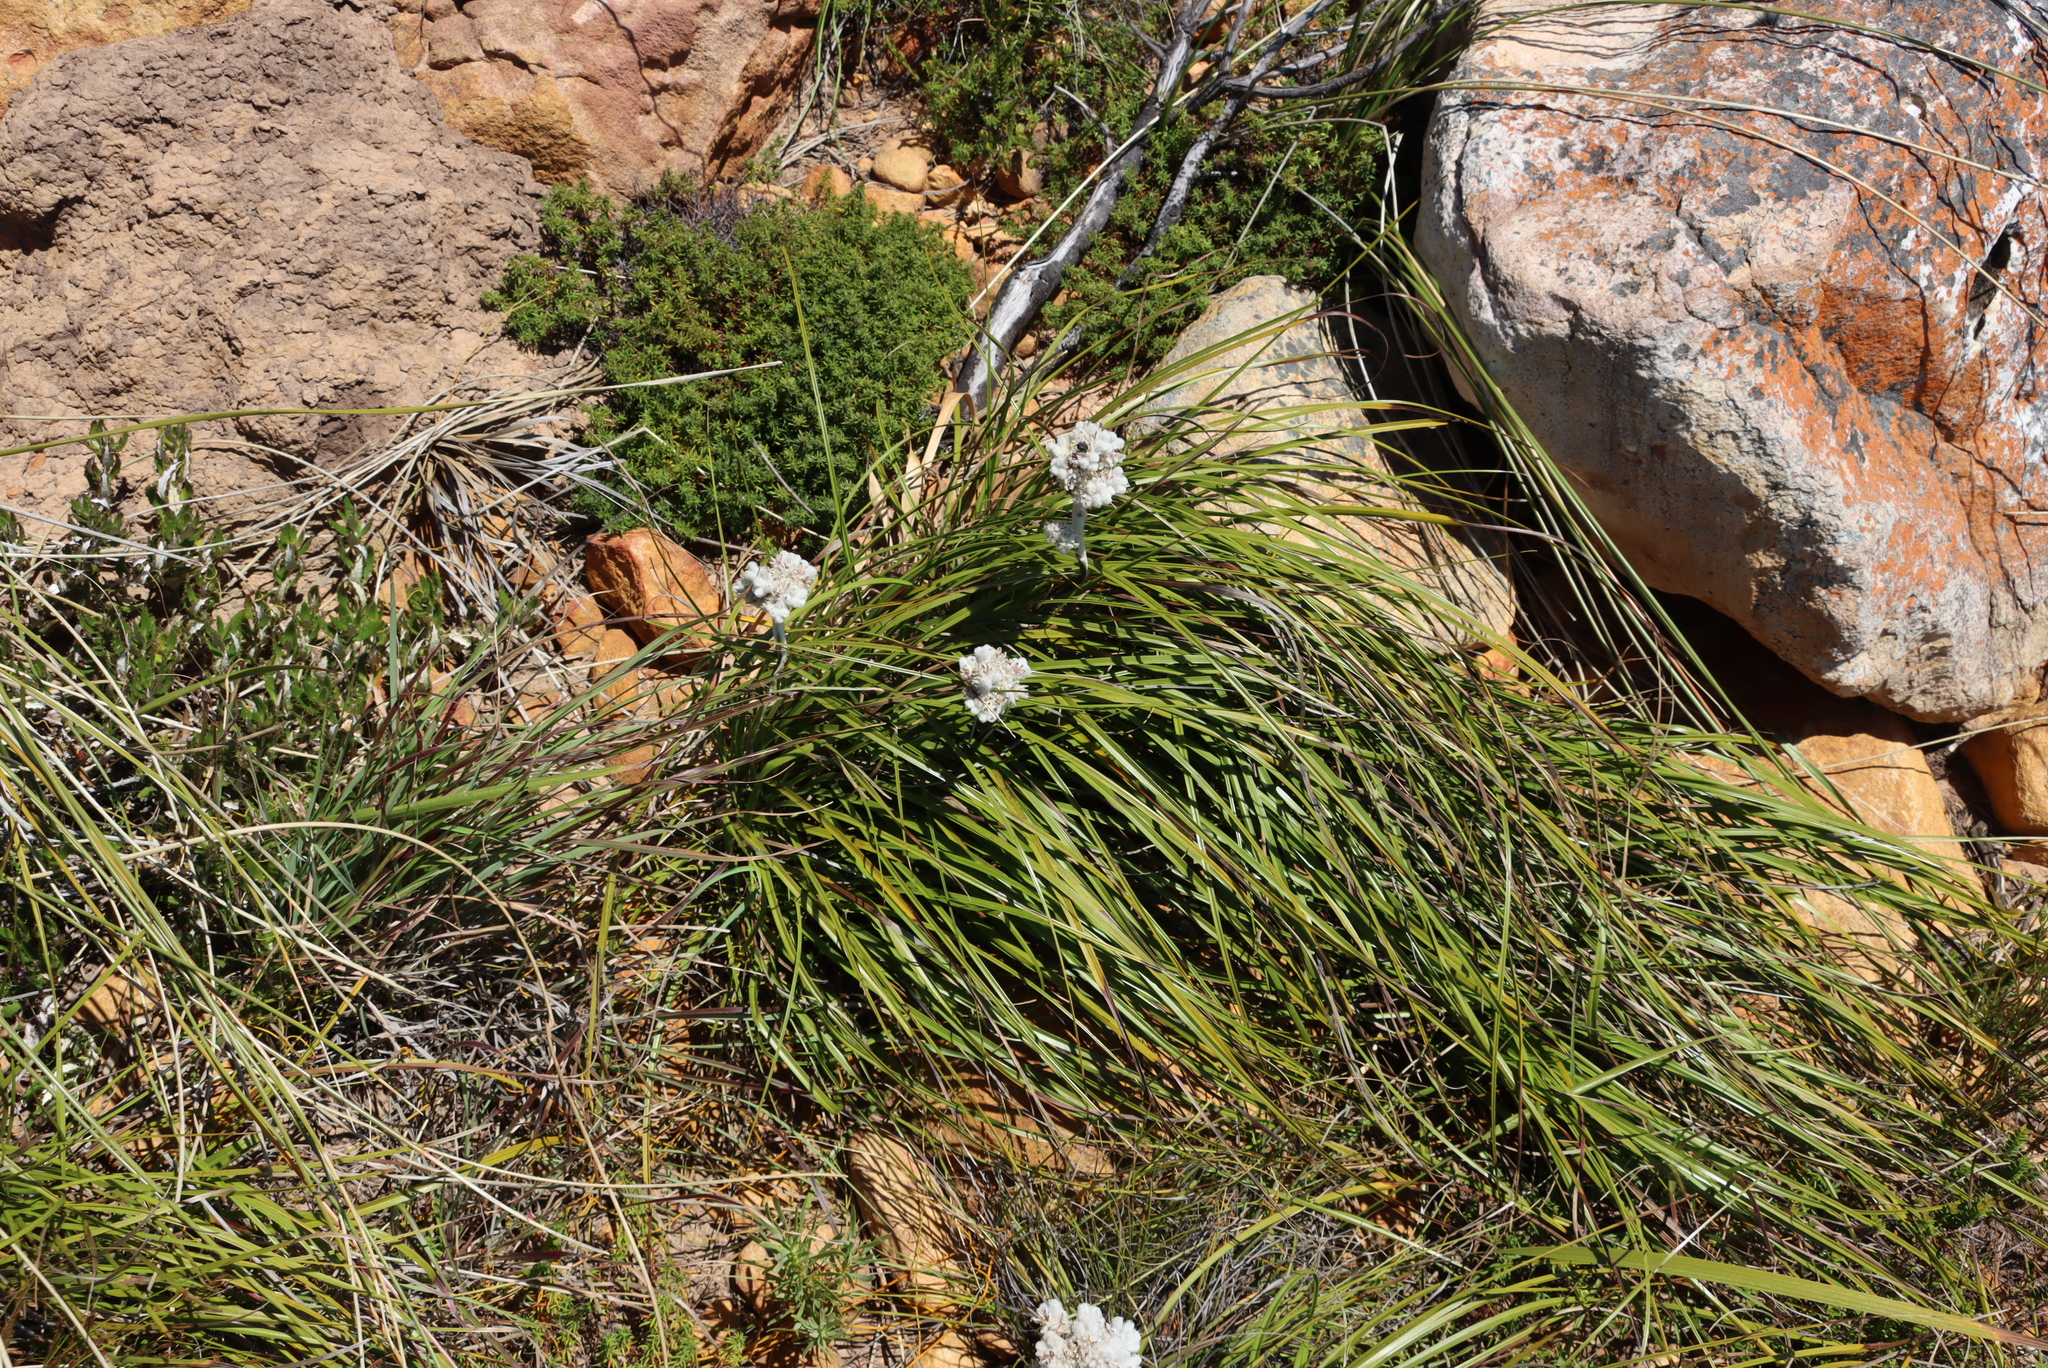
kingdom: Plantae
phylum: Tracheophyta
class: Liliopsida
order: Asparagales
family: Lanariaceae
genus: Lanaria
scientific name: Lanaria lanata
